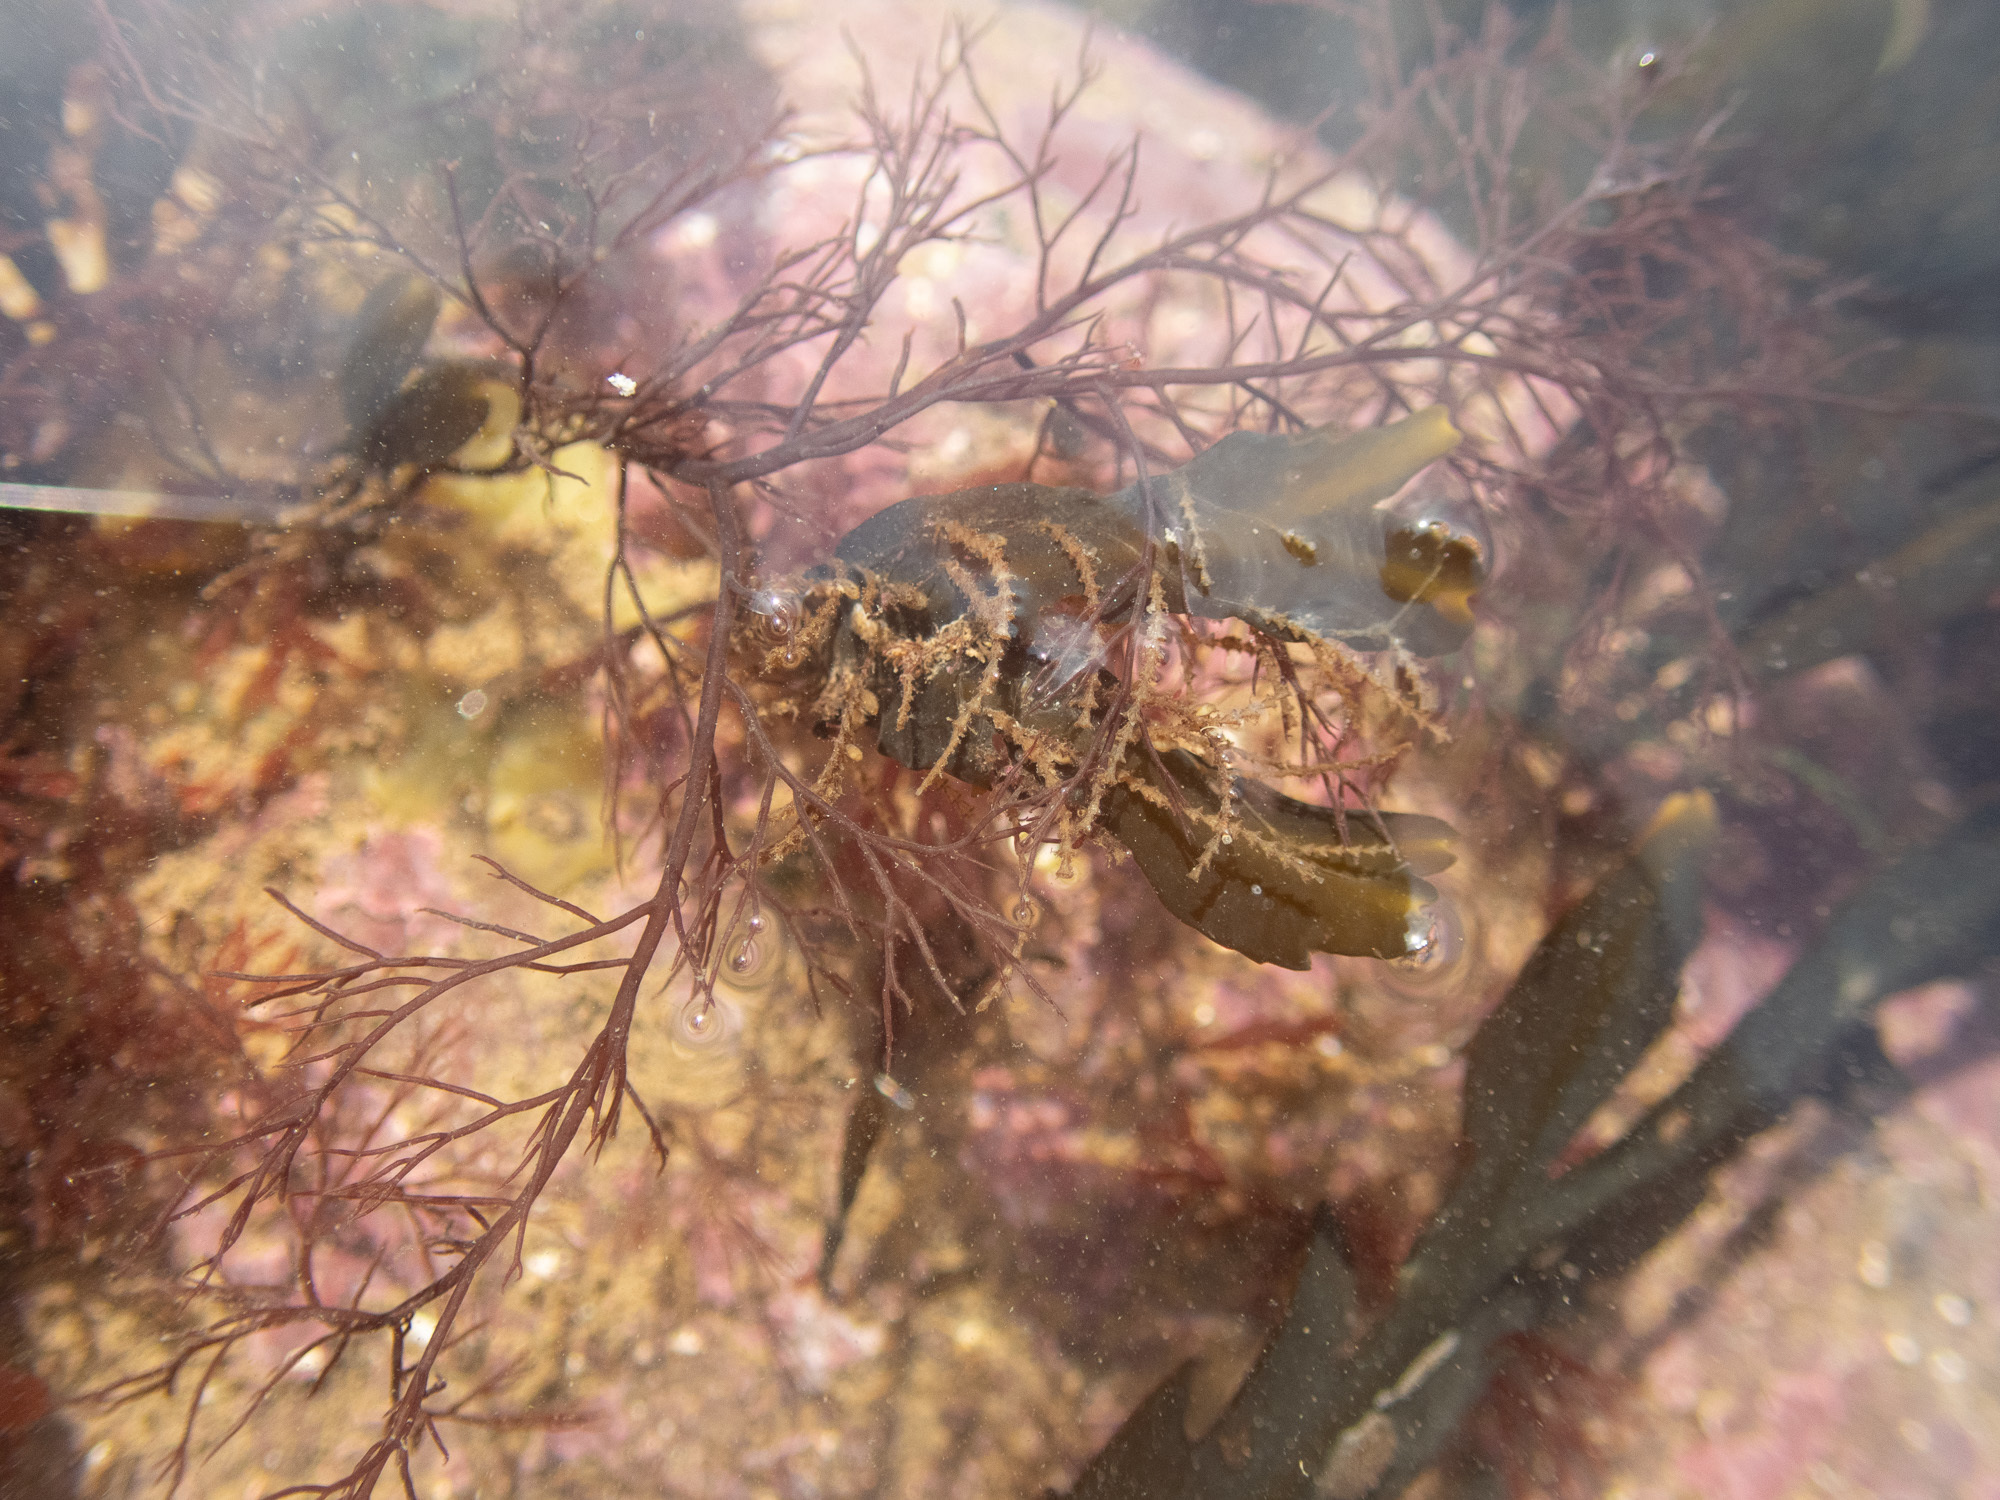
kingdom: Animalia
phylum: Cnidaria
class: Hydrozoa
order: Leptothecata
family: Sertulariidae
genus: Dynamena
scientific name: Dynamena pumila
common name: Sea oak
